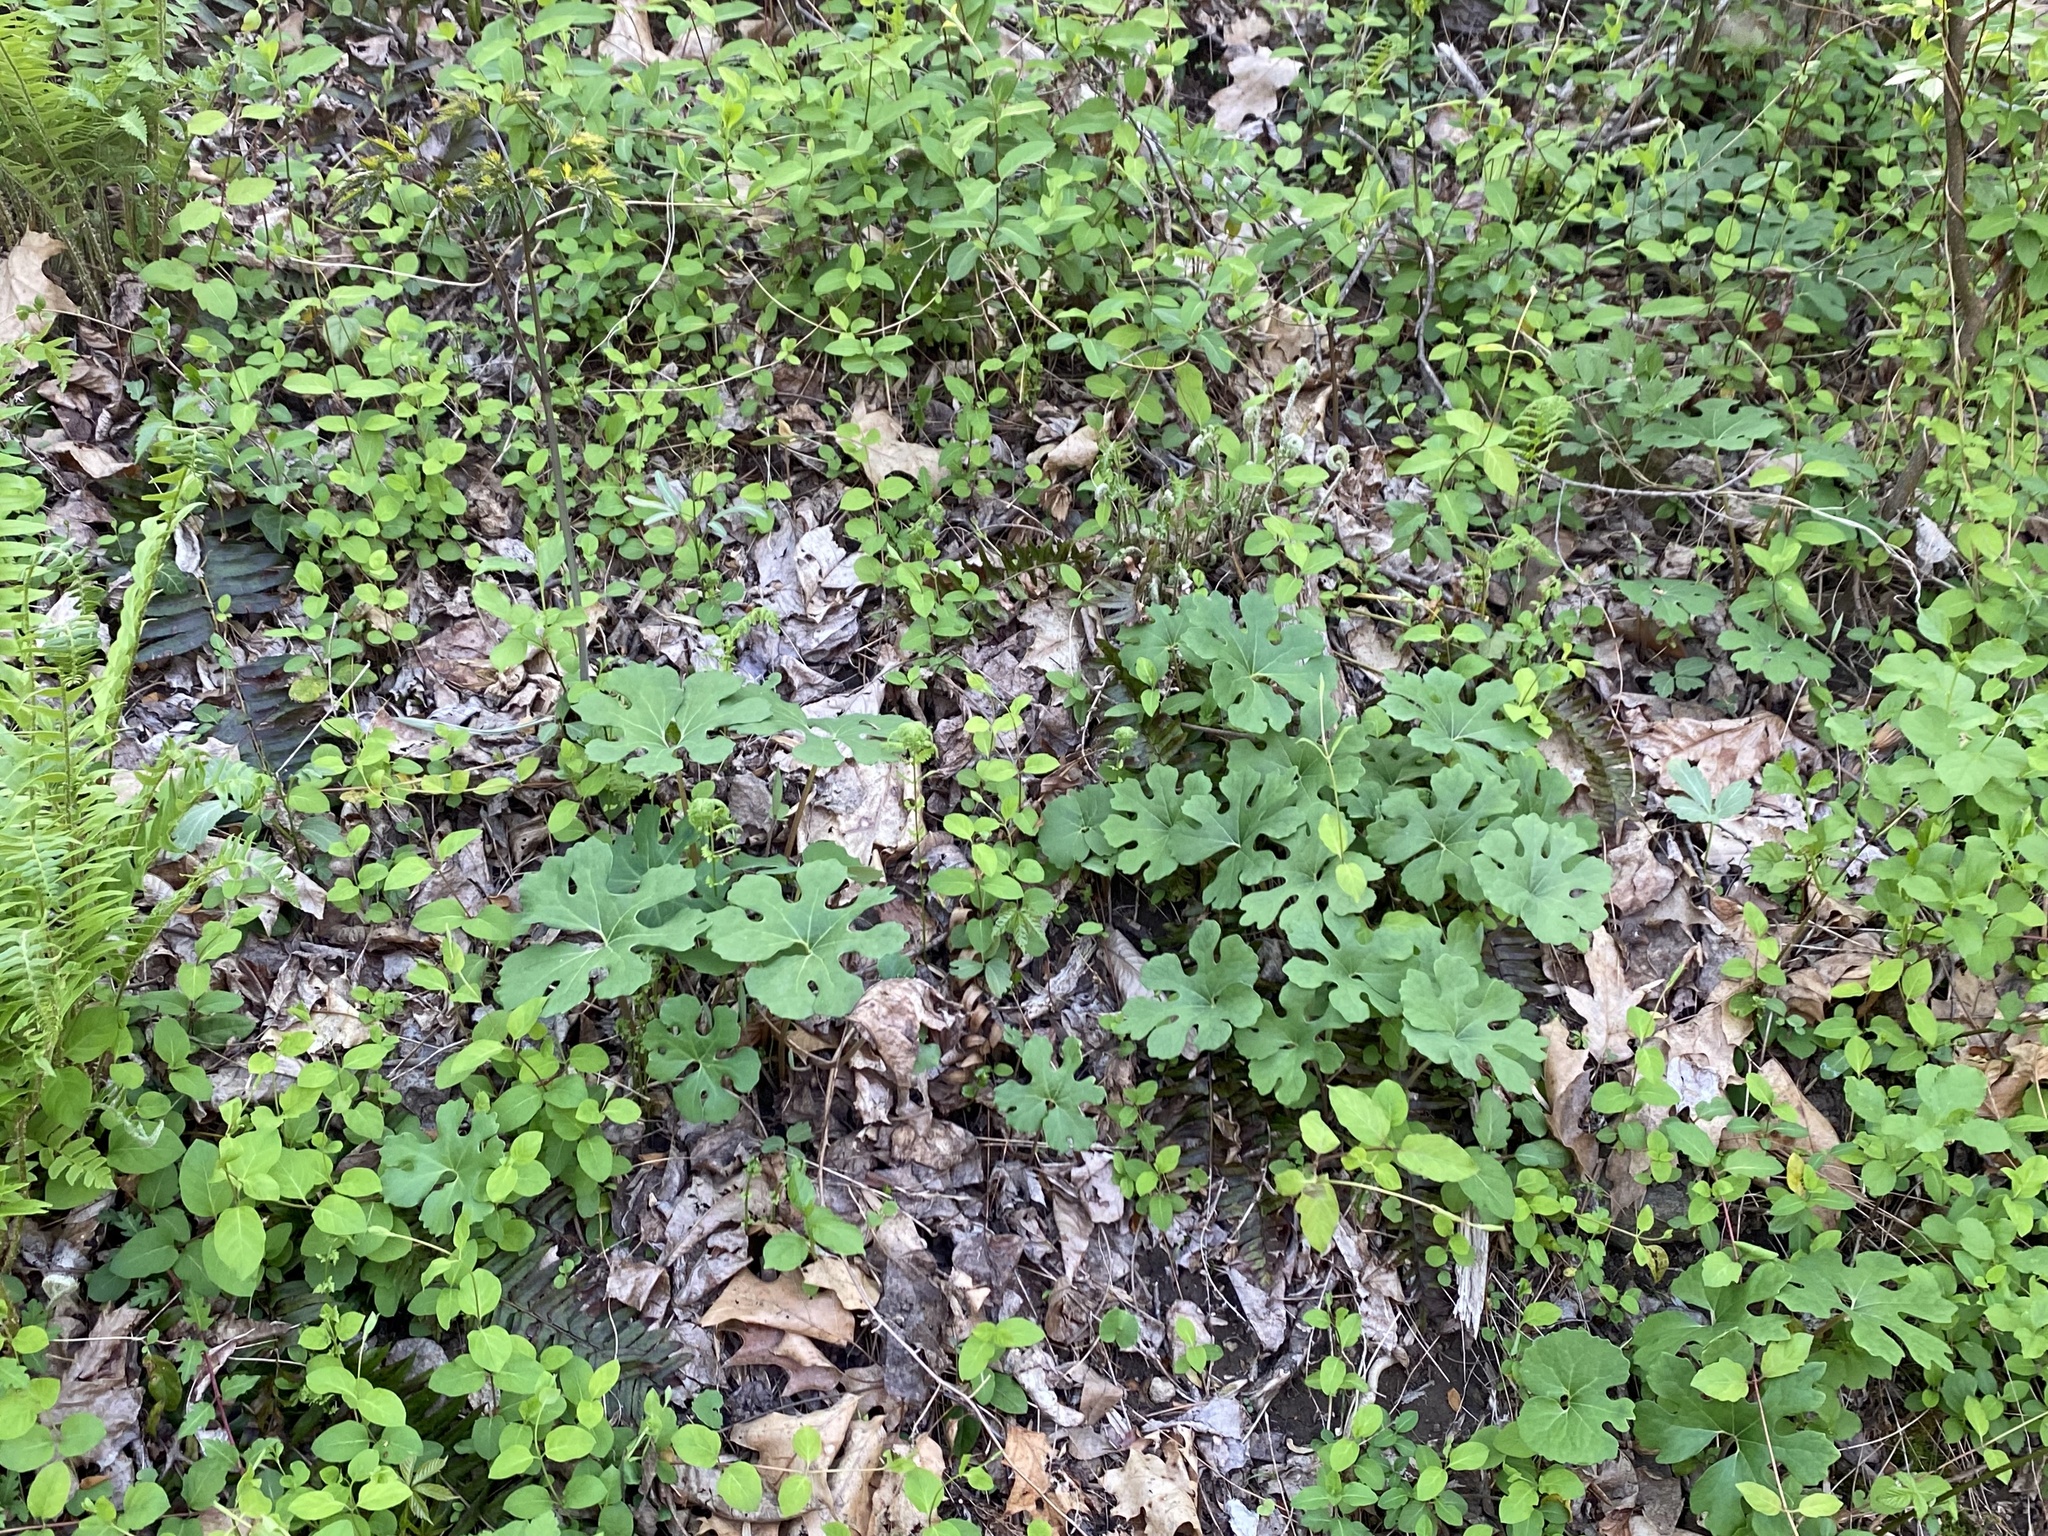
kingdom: Plantae
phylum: Tracheophyta
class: Magnoliopsida
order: Ranunculales
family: Papaveraceae
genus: Sanguinaria
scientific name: Sanguinaria canadensis
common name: Bloodroot
